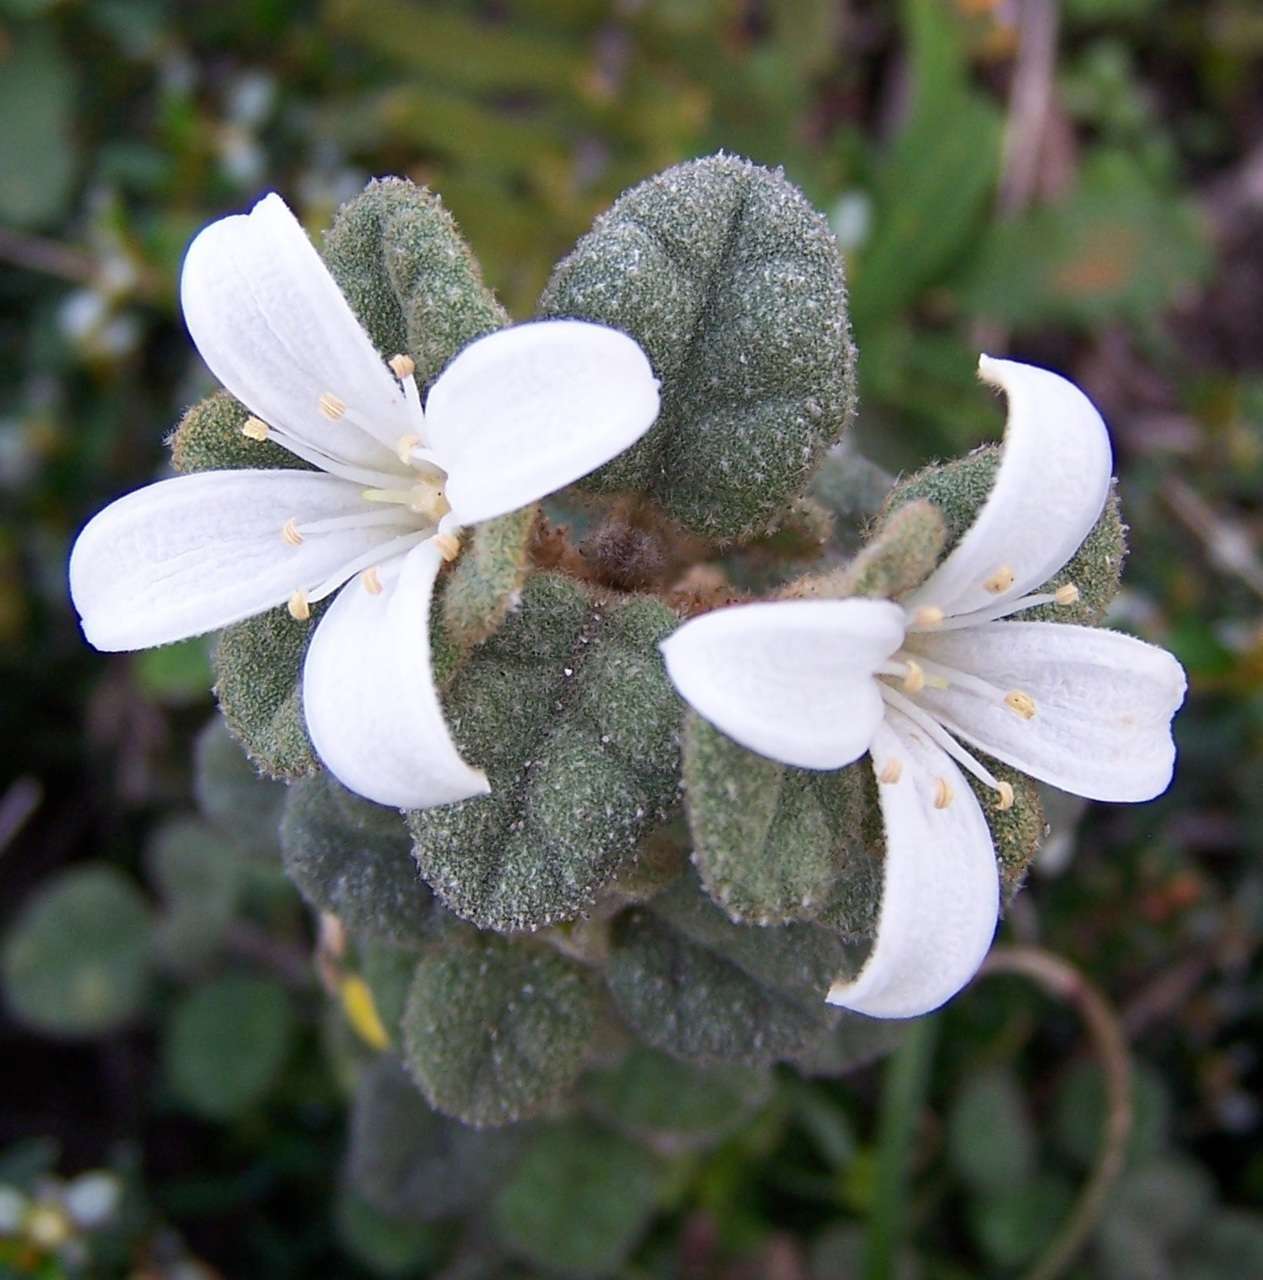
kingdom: Plantae
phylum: Tracheophyta
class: Magnoliopsida
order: Sapindales
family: Rutaceae
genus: Correa
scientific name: Correa alba
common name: White correa
